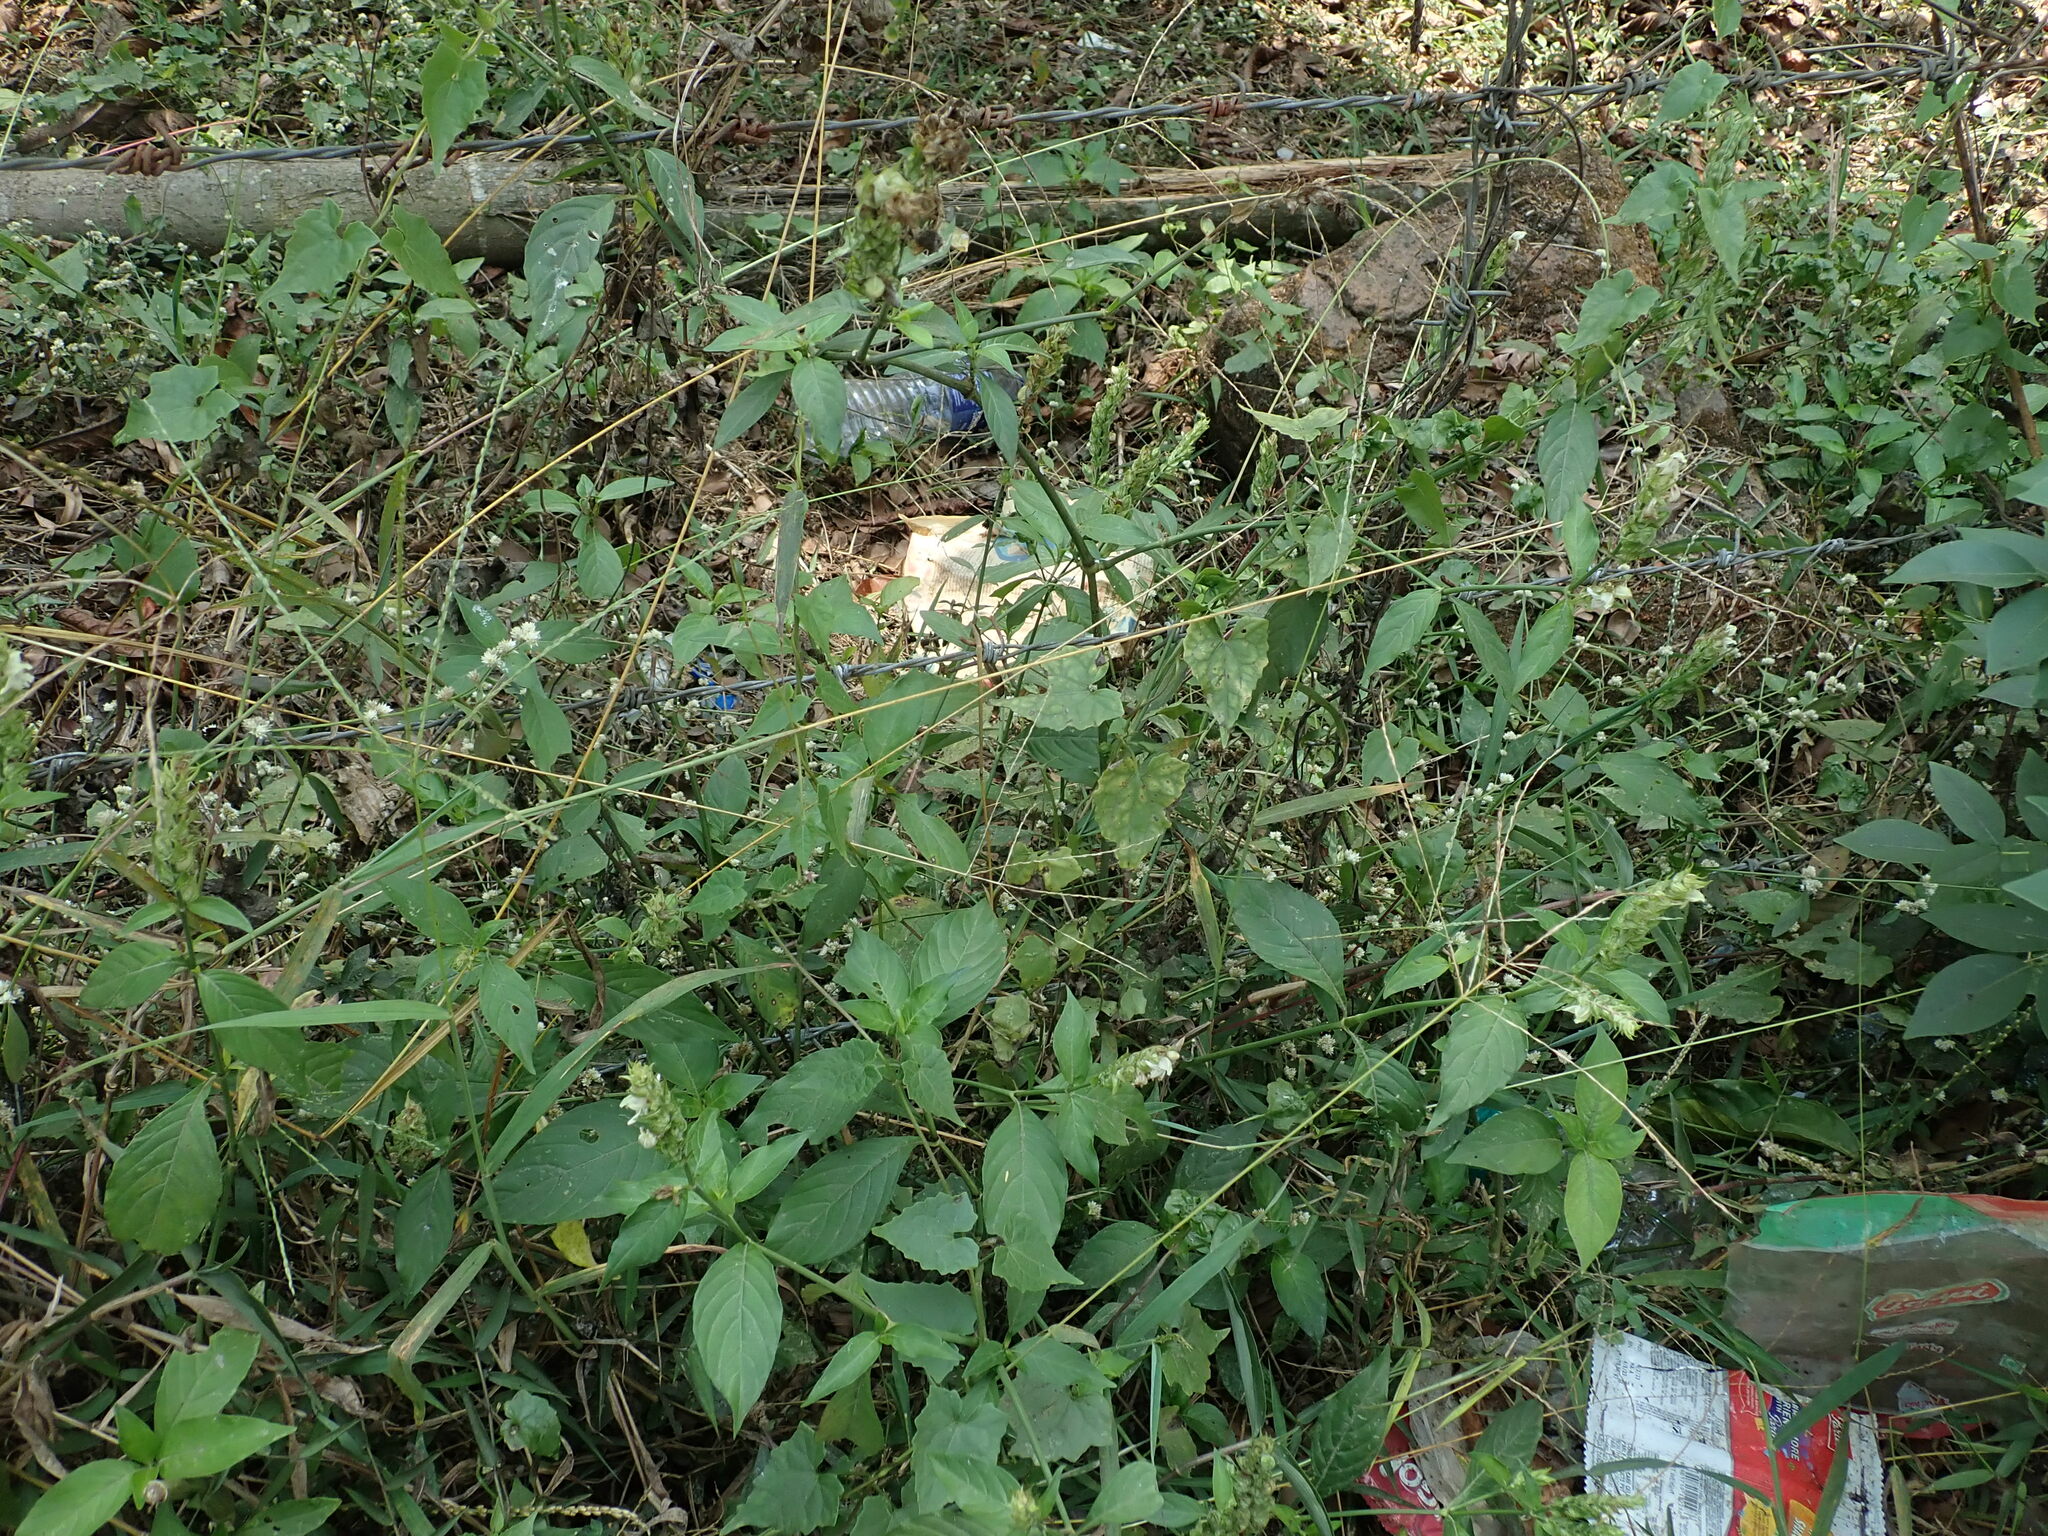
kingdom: Plantae
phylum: Tracheophyta
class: Magnoliopsida
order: Lamiales
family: Acanthaceae
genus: Justicia
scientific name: Justicia betonica
